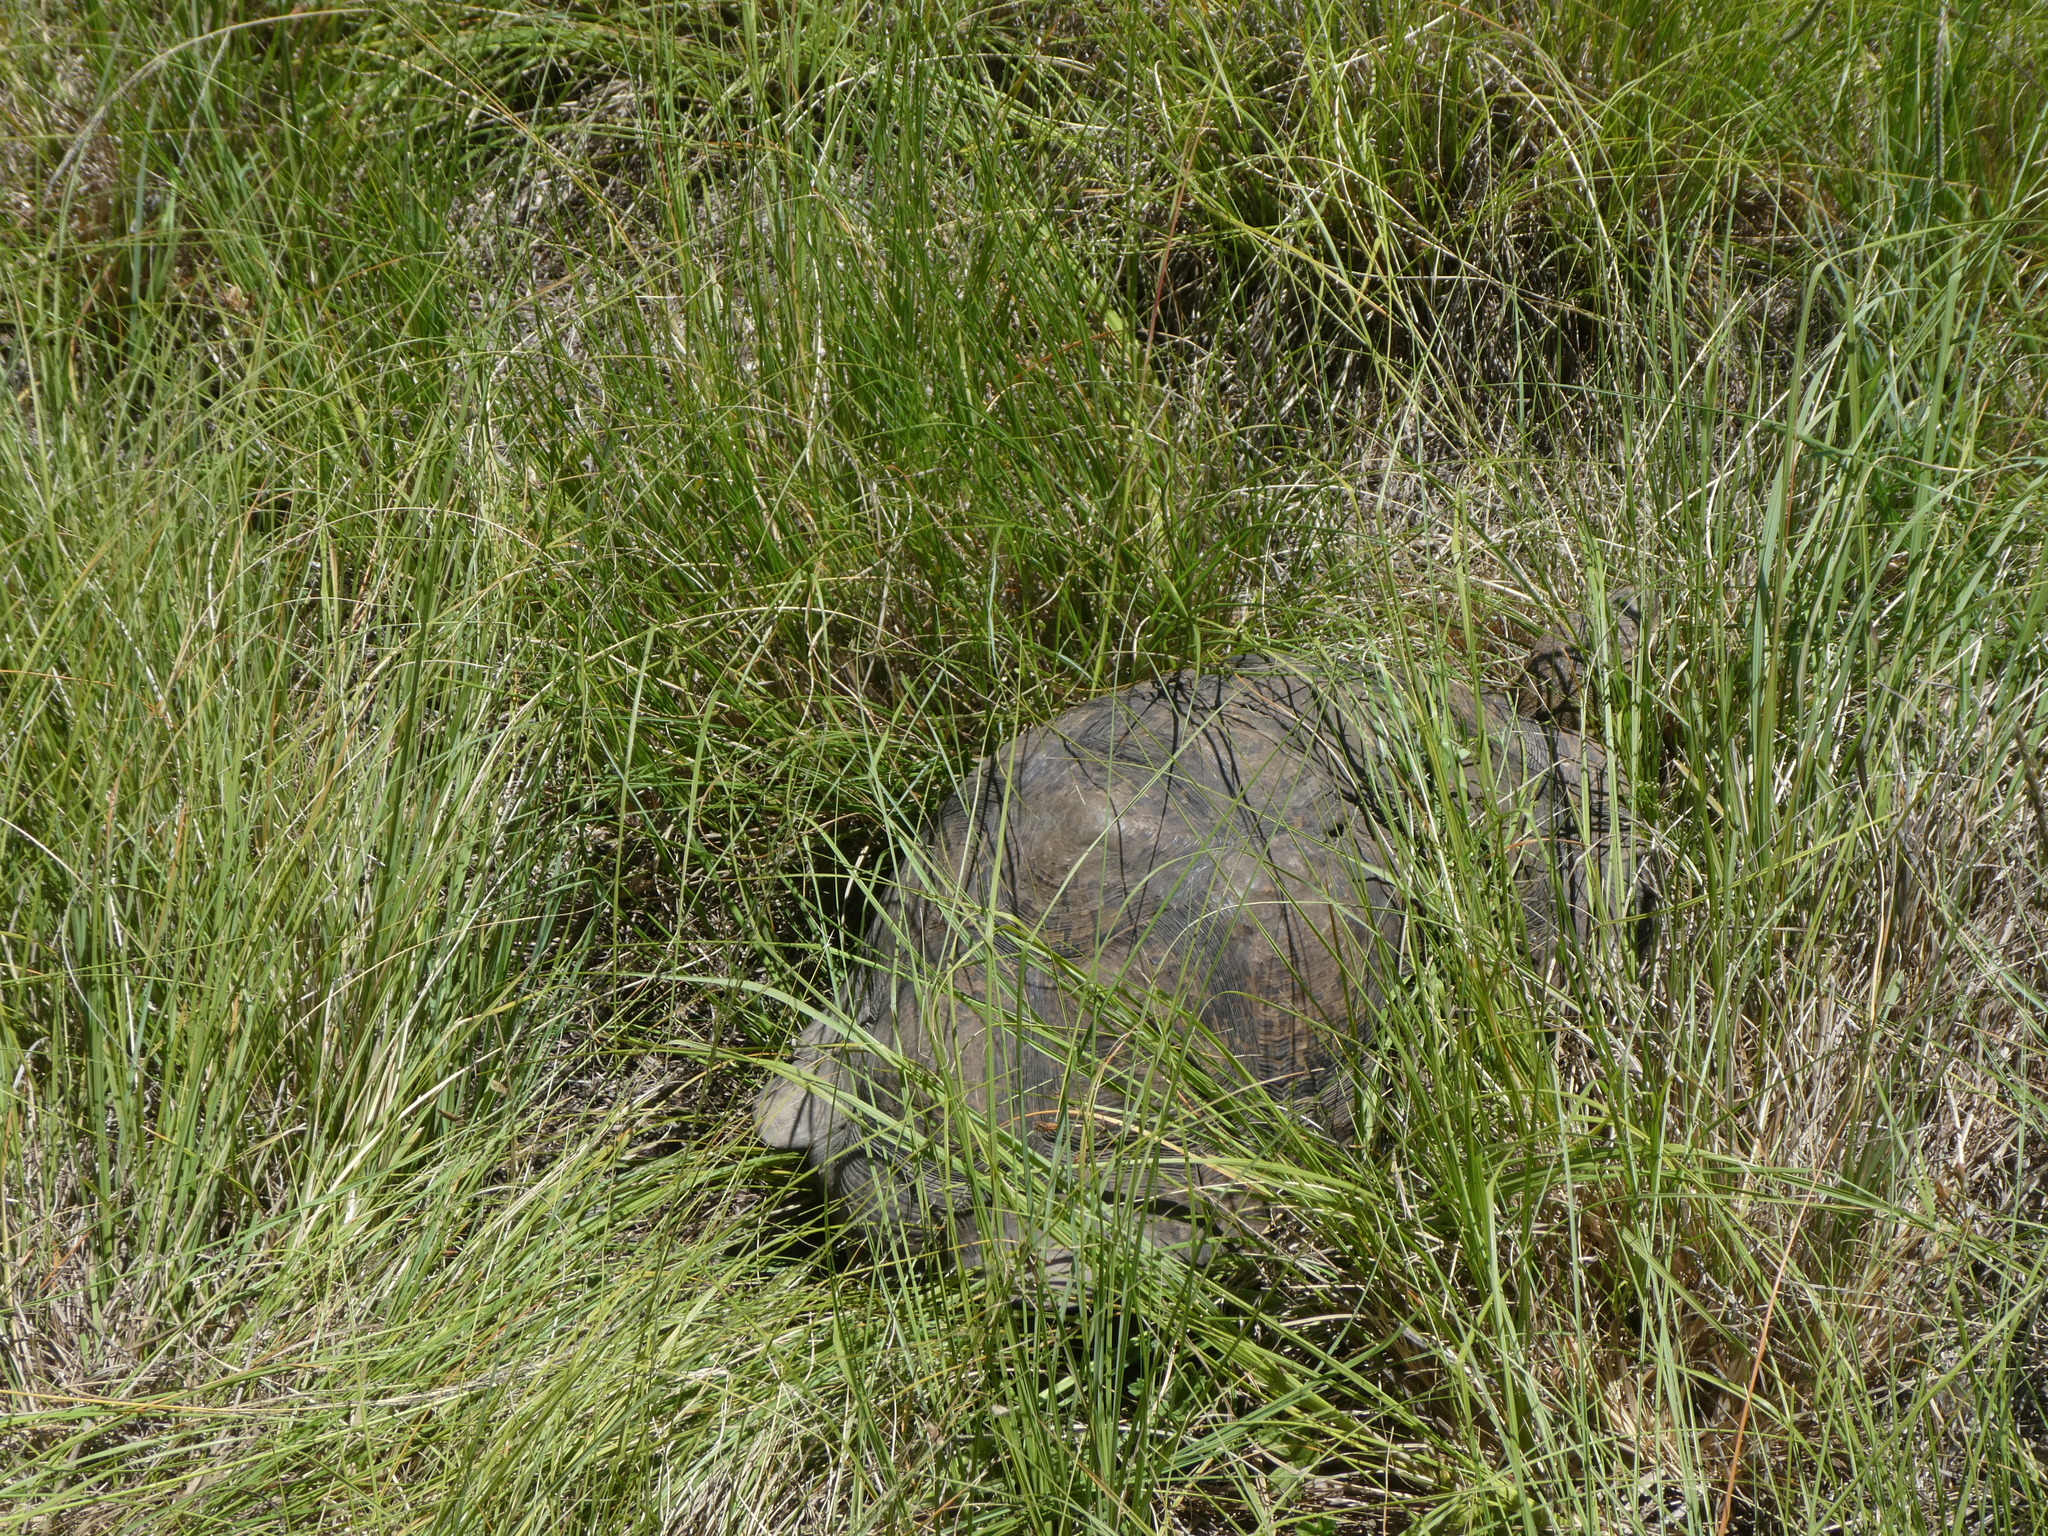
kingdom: Animalia
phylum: Chordata
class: Testudines
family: Testudinidae
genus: Stigmochelys
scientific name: Stigmochelys pardalis
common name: Leopard tortoise
